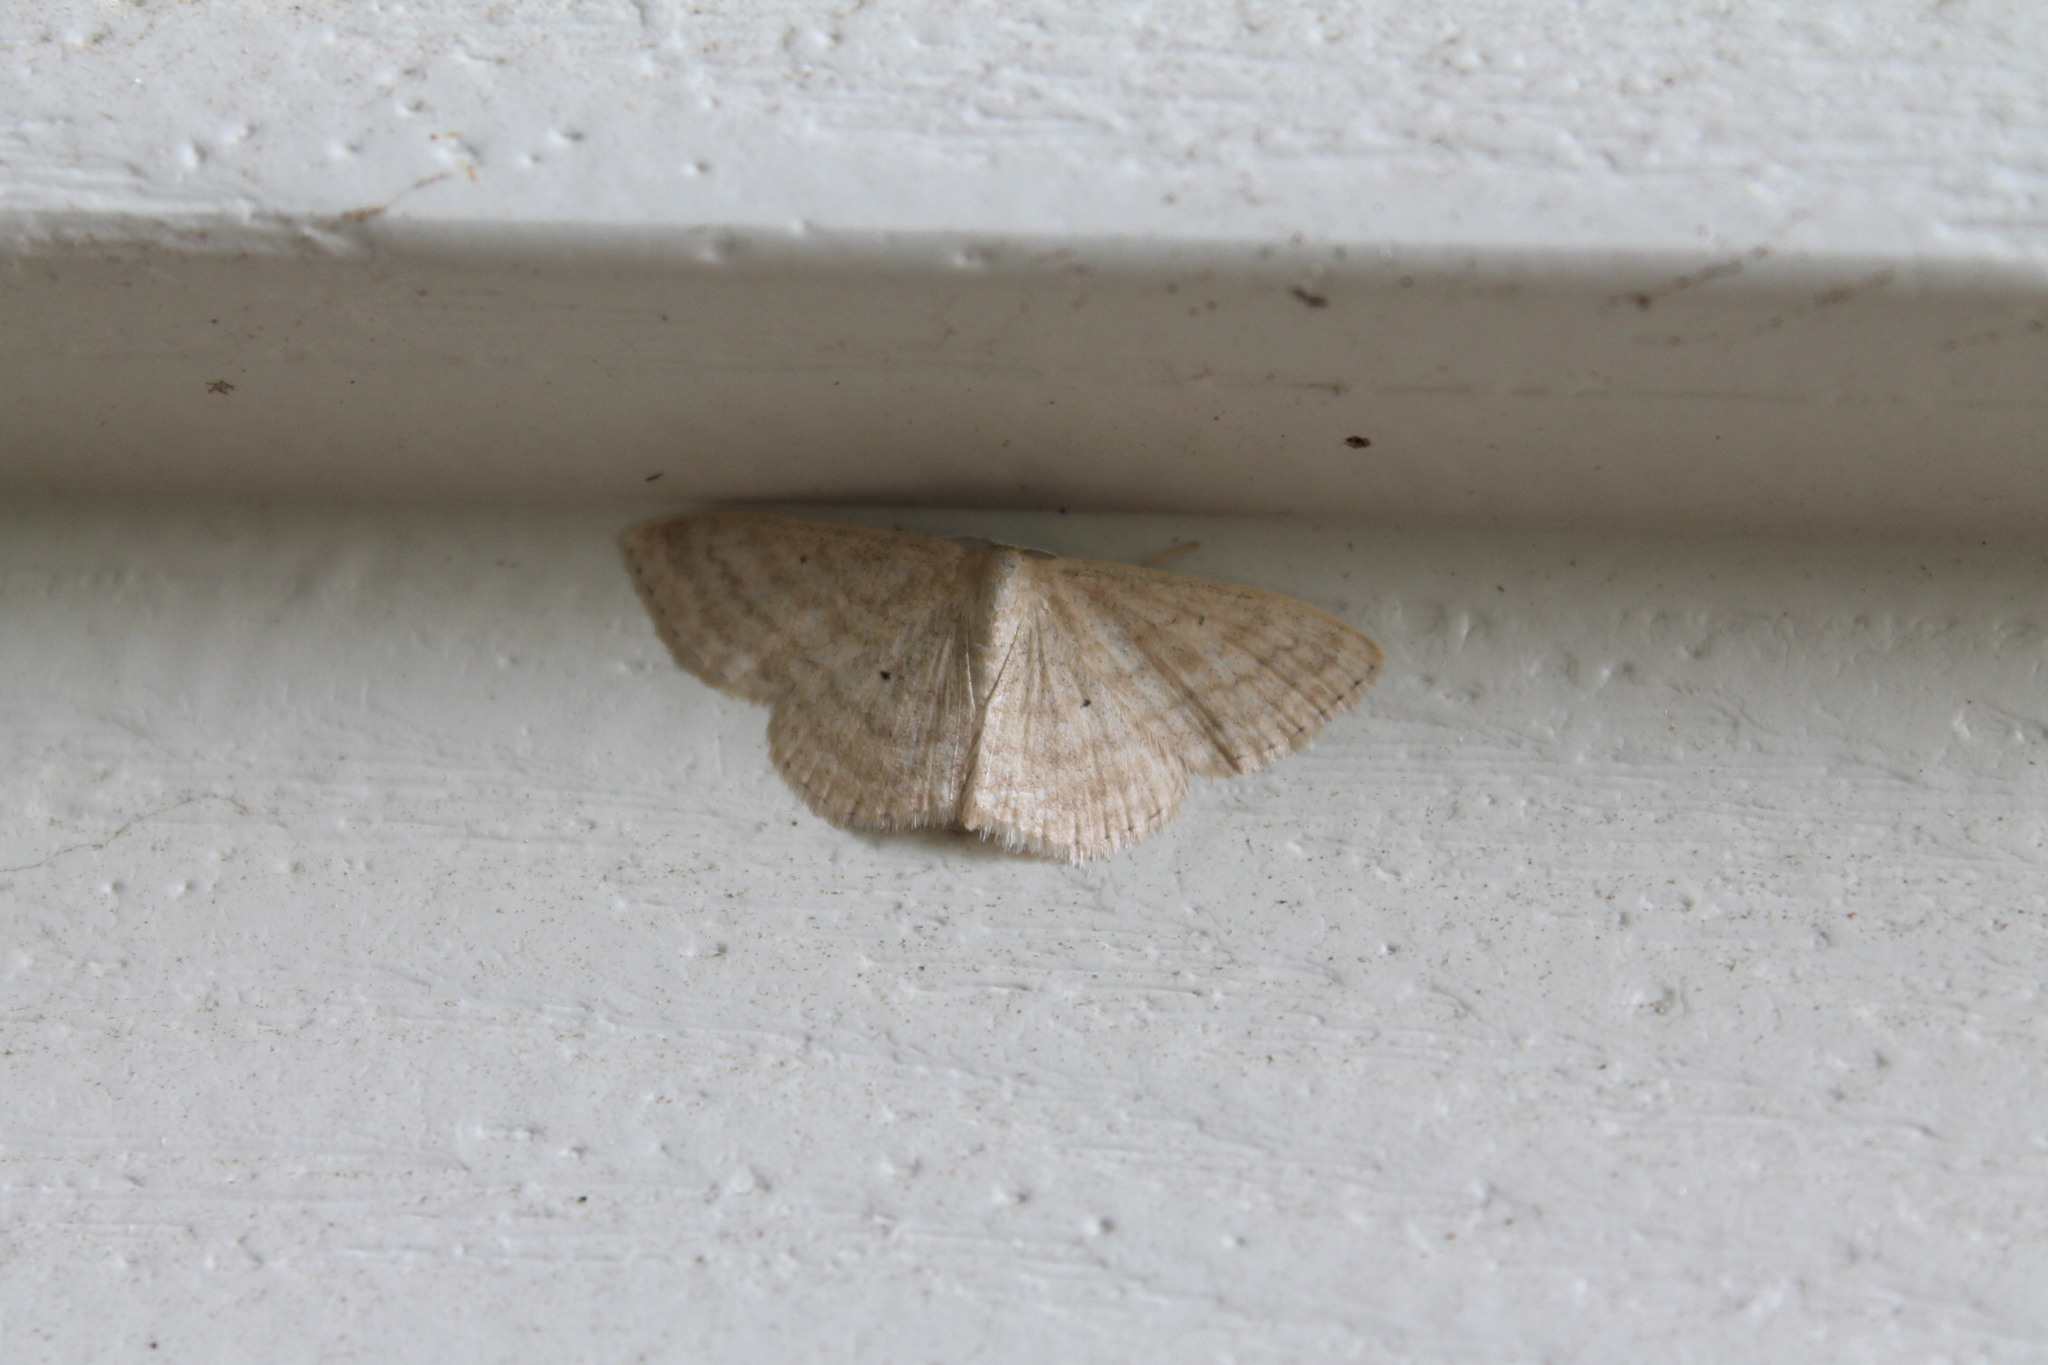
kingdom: Animalia
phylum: Arthropoda
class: Insecta
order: Lepidoptera
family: Geometridae
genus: Scopula
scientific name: Scopula inductata
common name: Soft-lined wave
